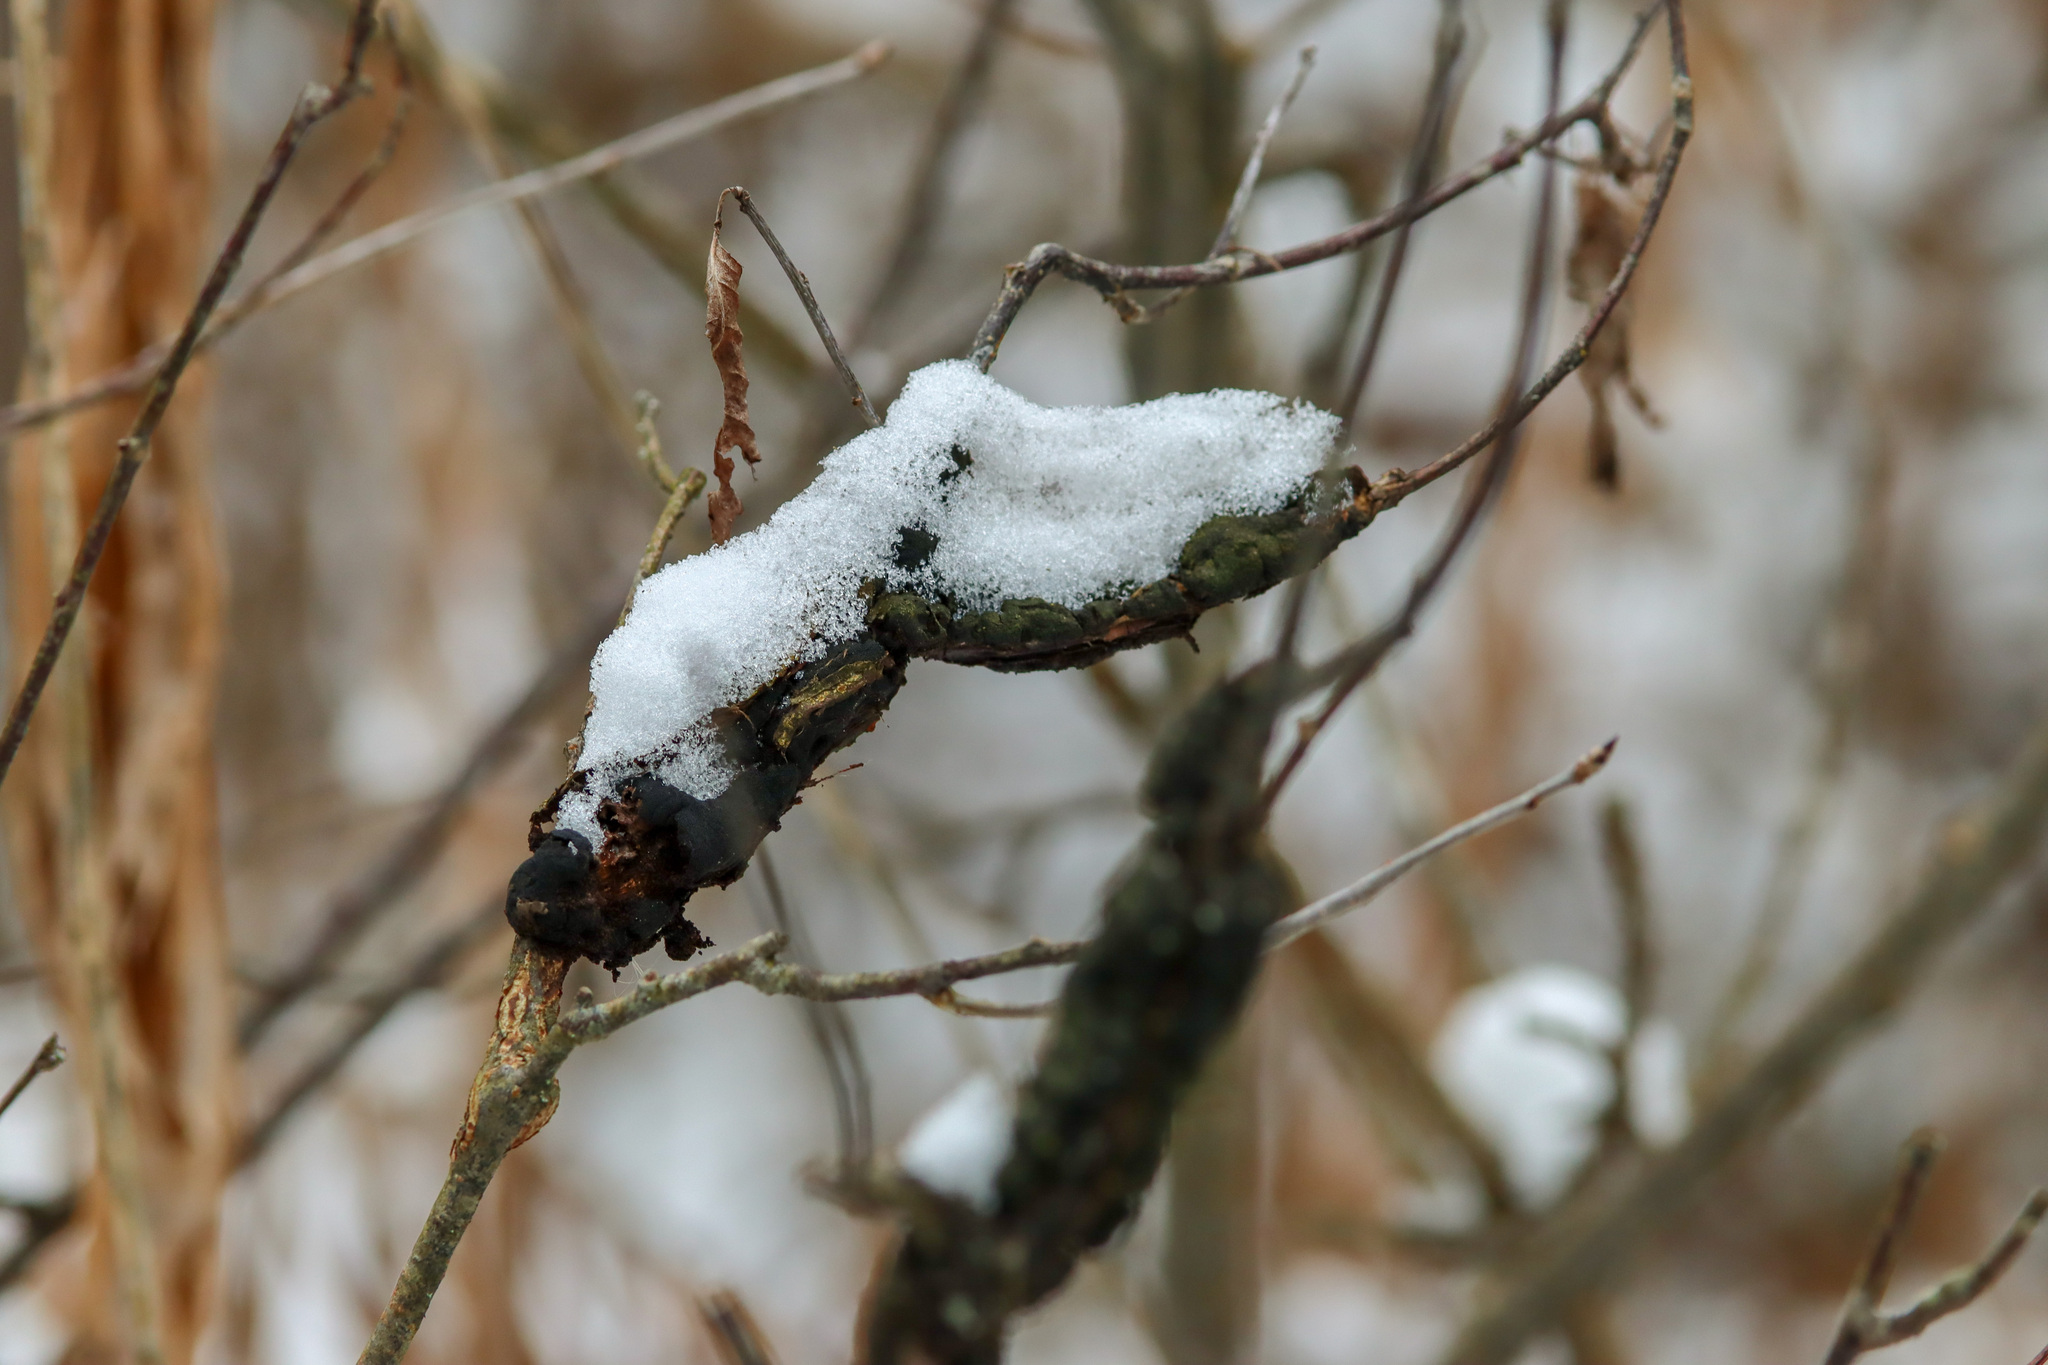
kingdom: Fungi
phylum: Ascomycota
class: Dothideomycetes
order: Venturiales
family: Venturiaceae
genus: Apiosporina
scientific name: Apiosporina morbosa
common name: Black knot
